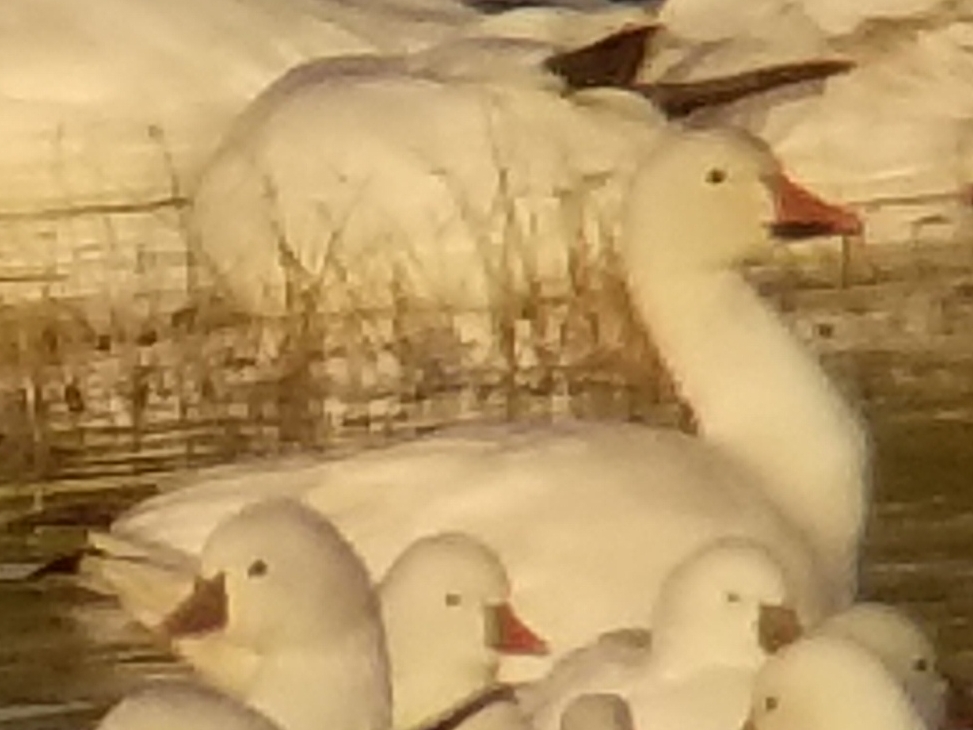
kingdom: Animalia
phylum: Chordata
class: Aves
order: Anseriformes
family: Anatidae
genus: Anser
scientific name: Anser caerulescens
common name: Snow goose
